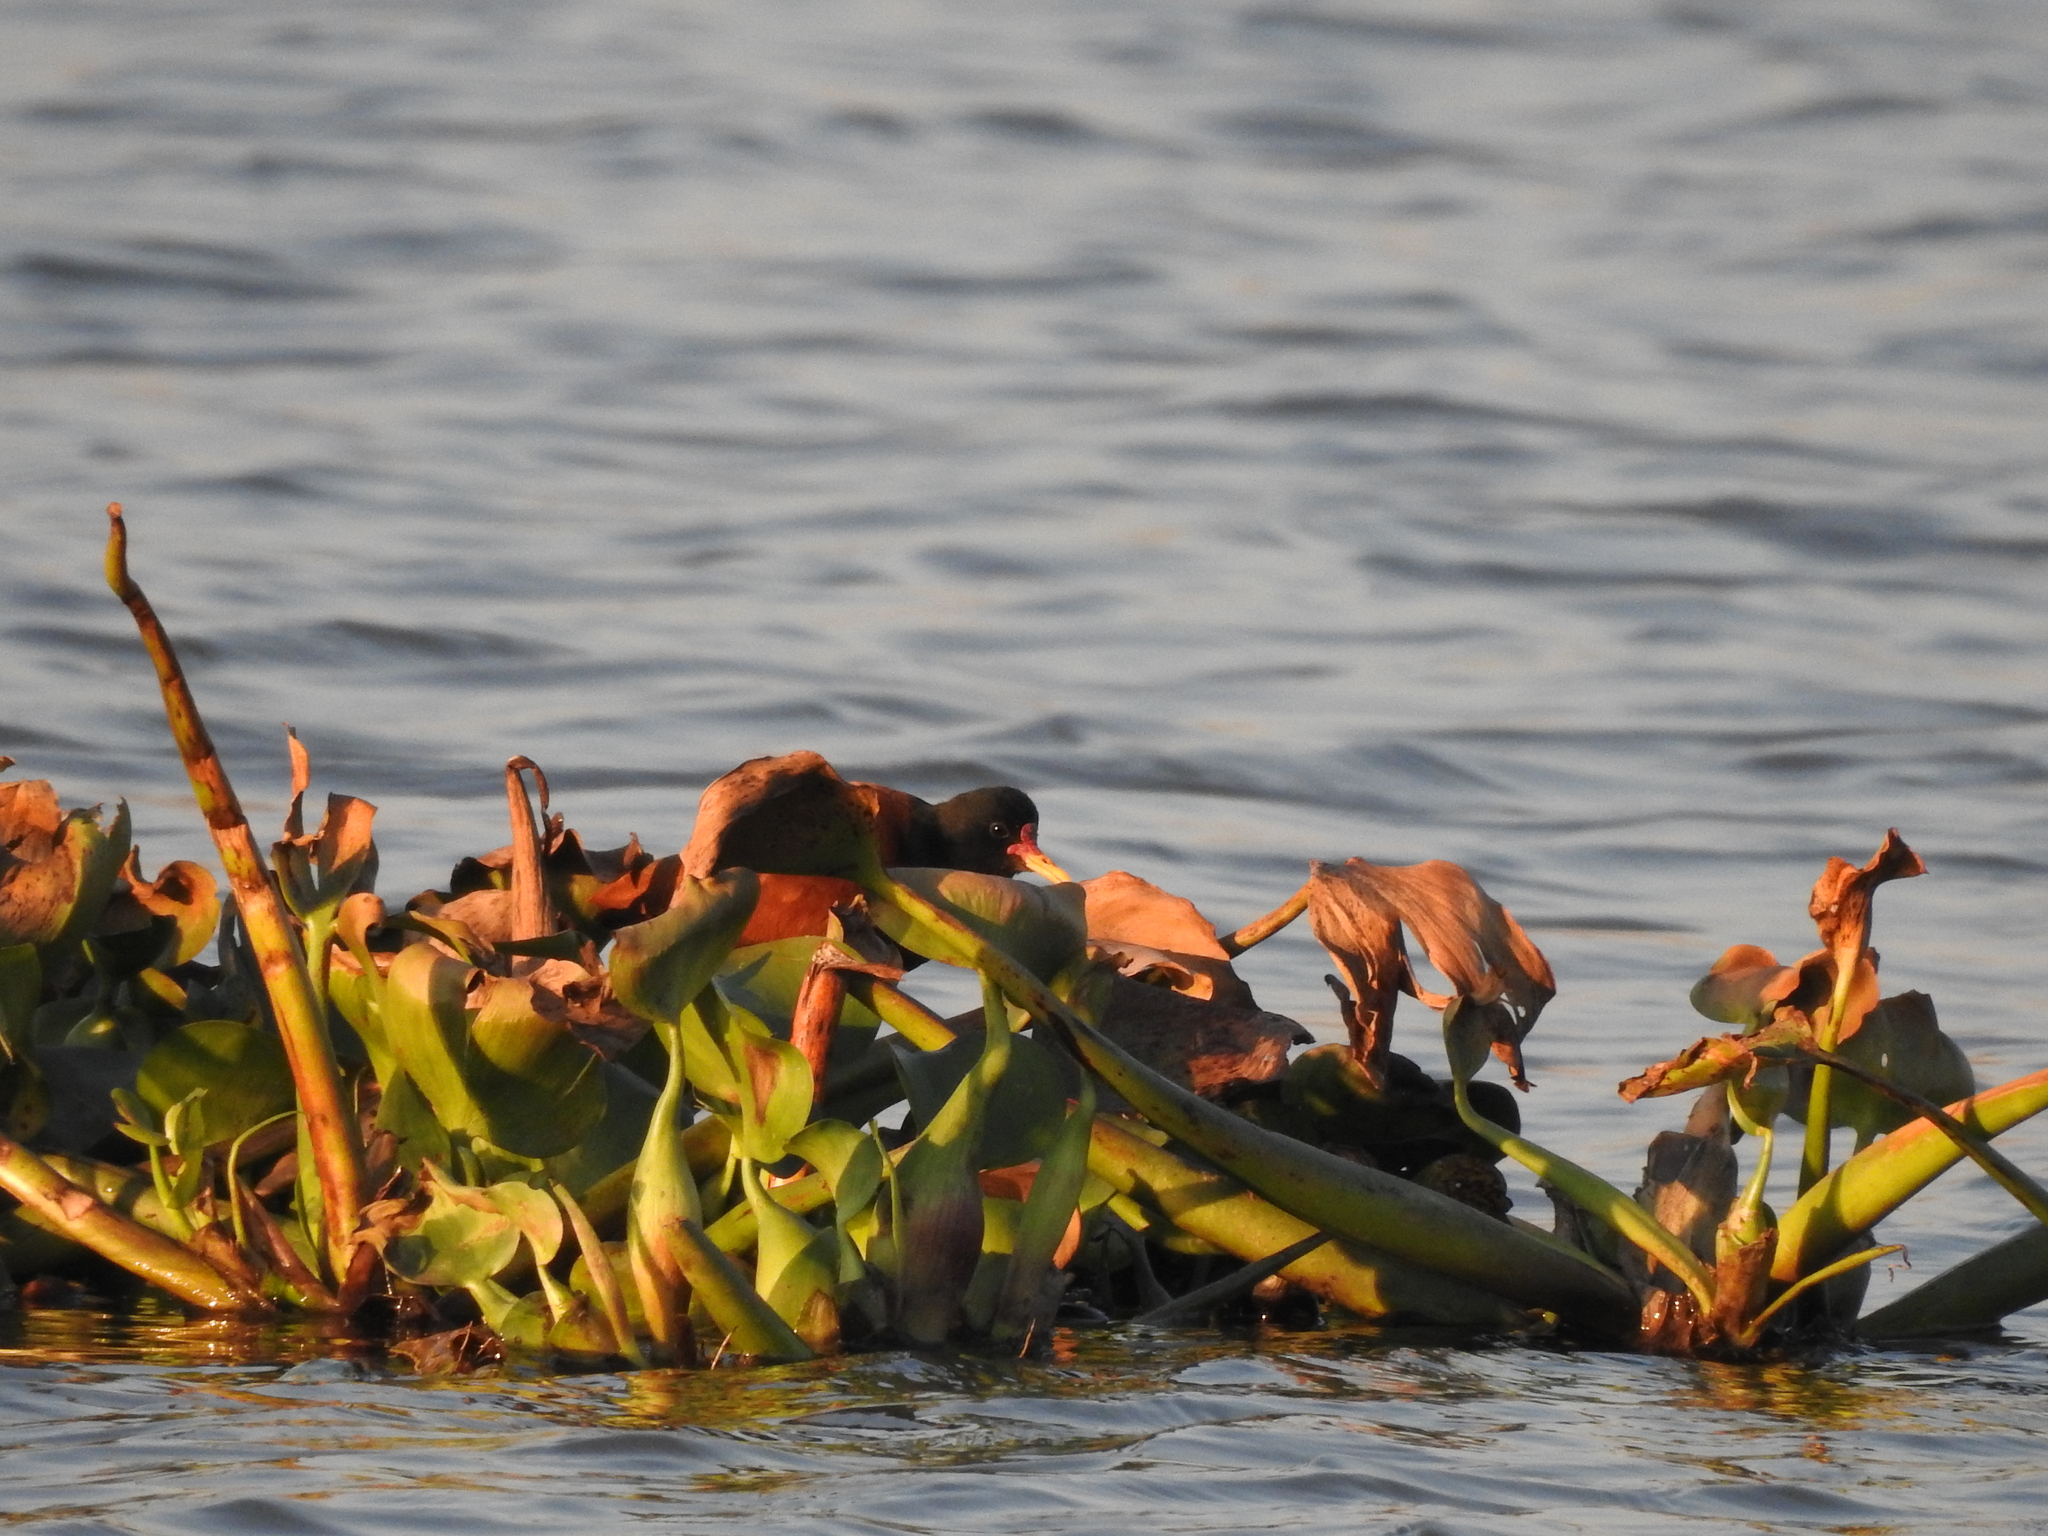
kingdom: Animalia
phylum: Chordata
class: Aves
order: Charadriiformes
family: Jacanidae
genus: Jacana
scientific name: Jacana jacana
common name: Wattled jacana
